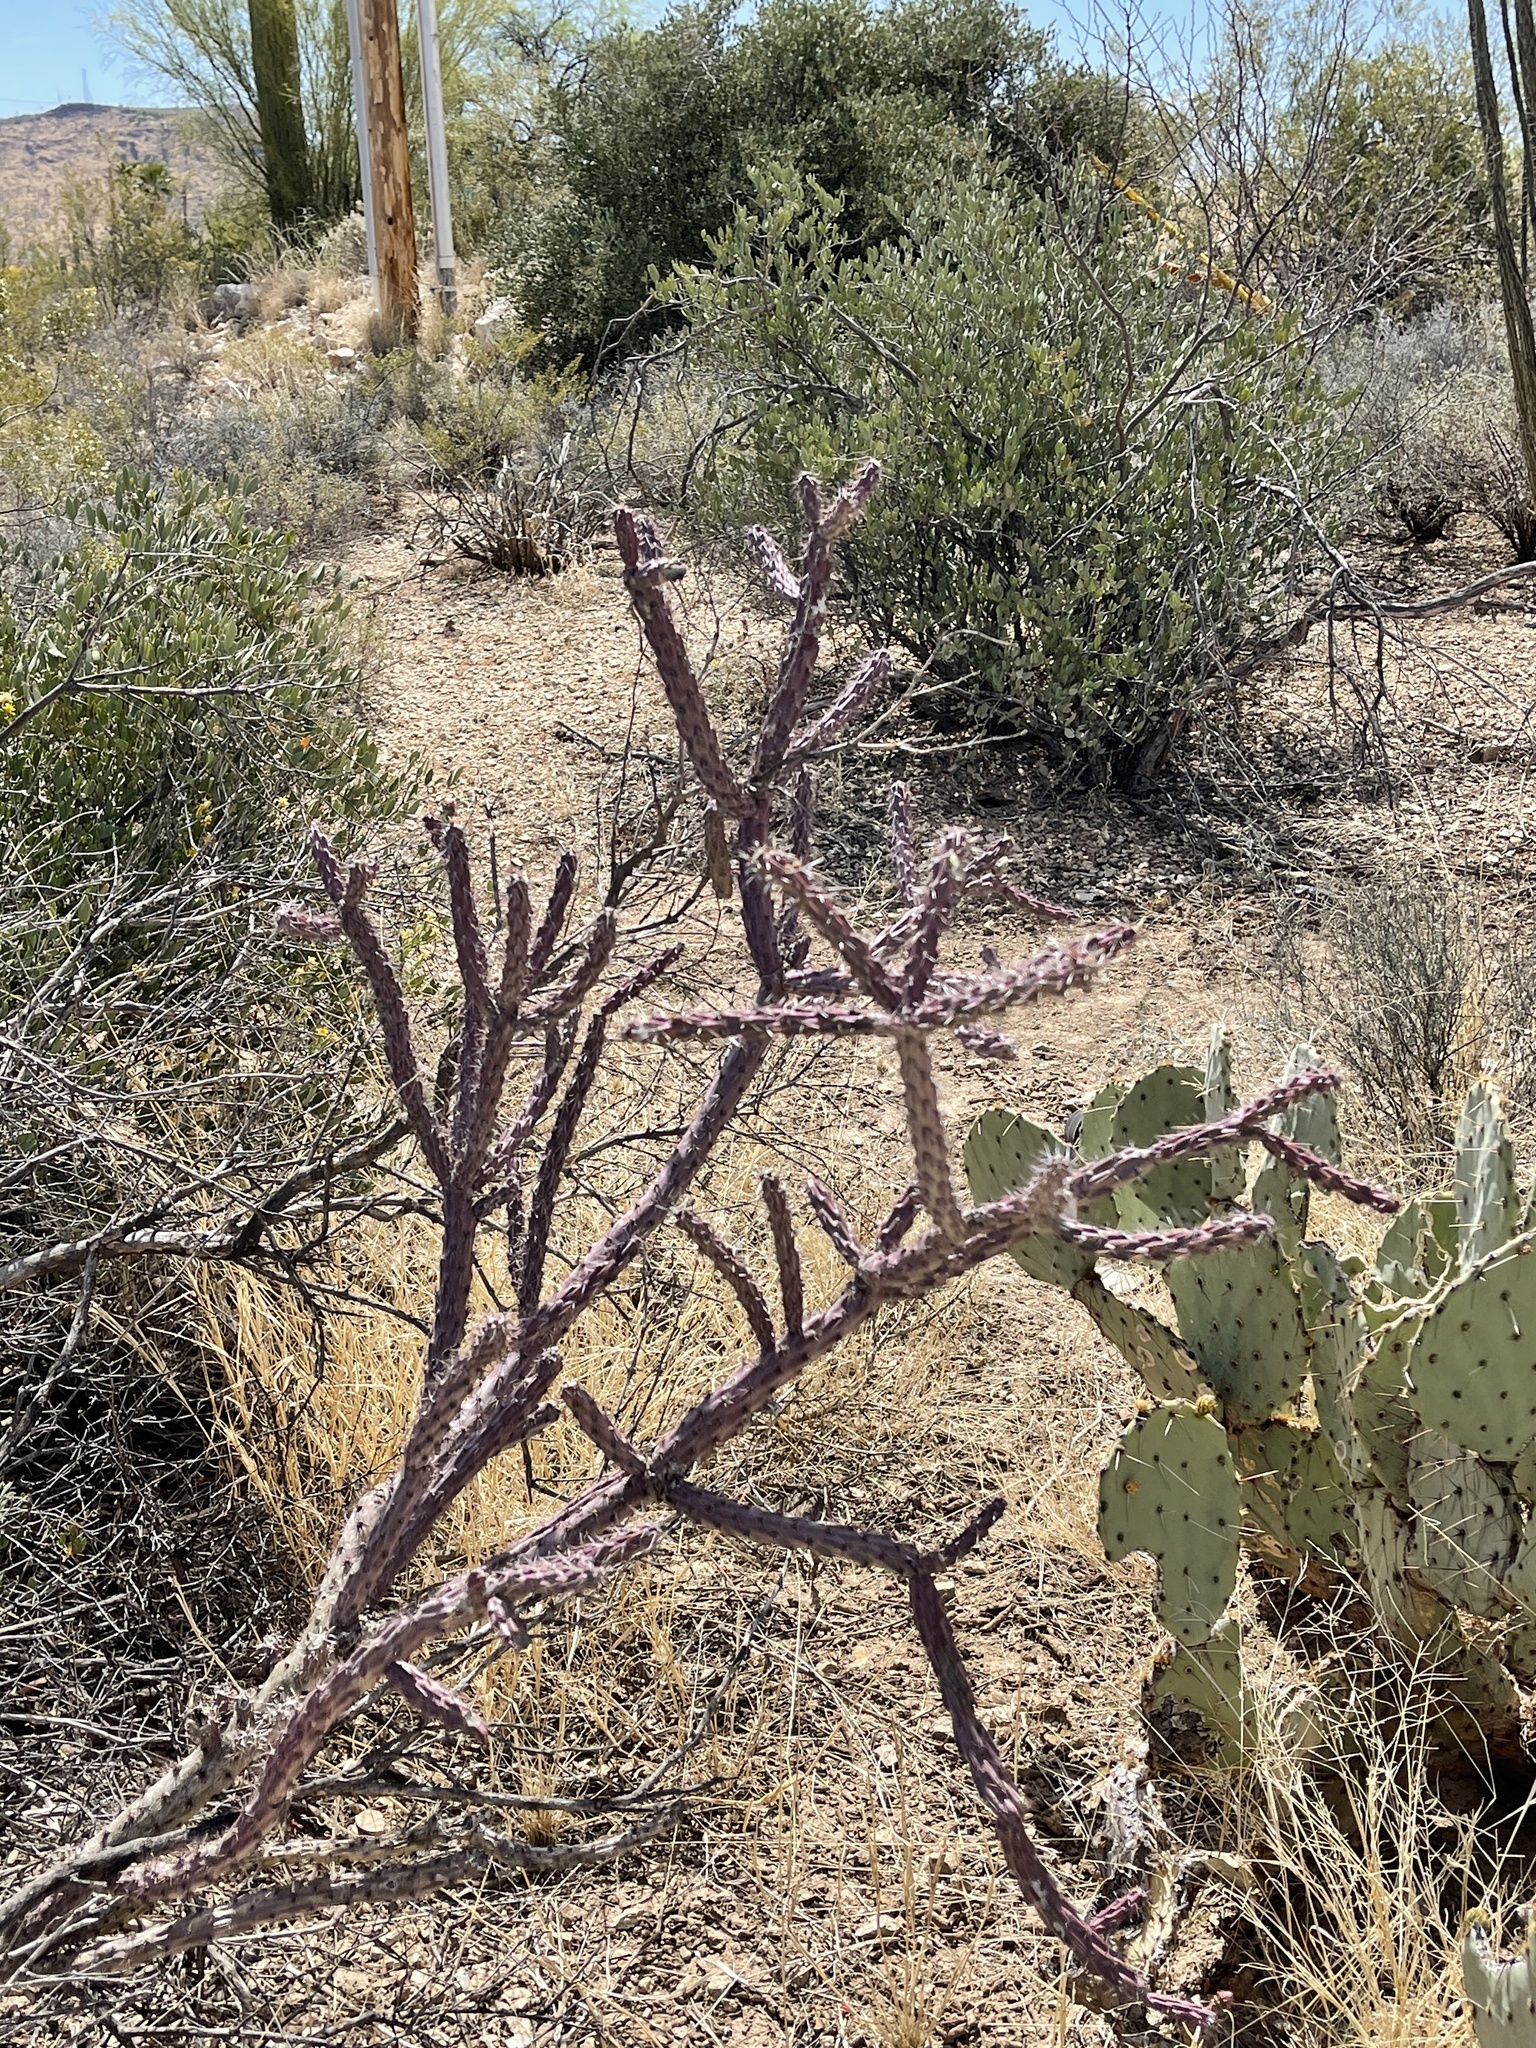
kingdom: Plantae
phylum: Tracheophyta
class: Magnoliopsida
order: Caryophyllales
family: Cactaceae
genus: Cylindropuntia
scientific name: Cylindropuntia thurberi
